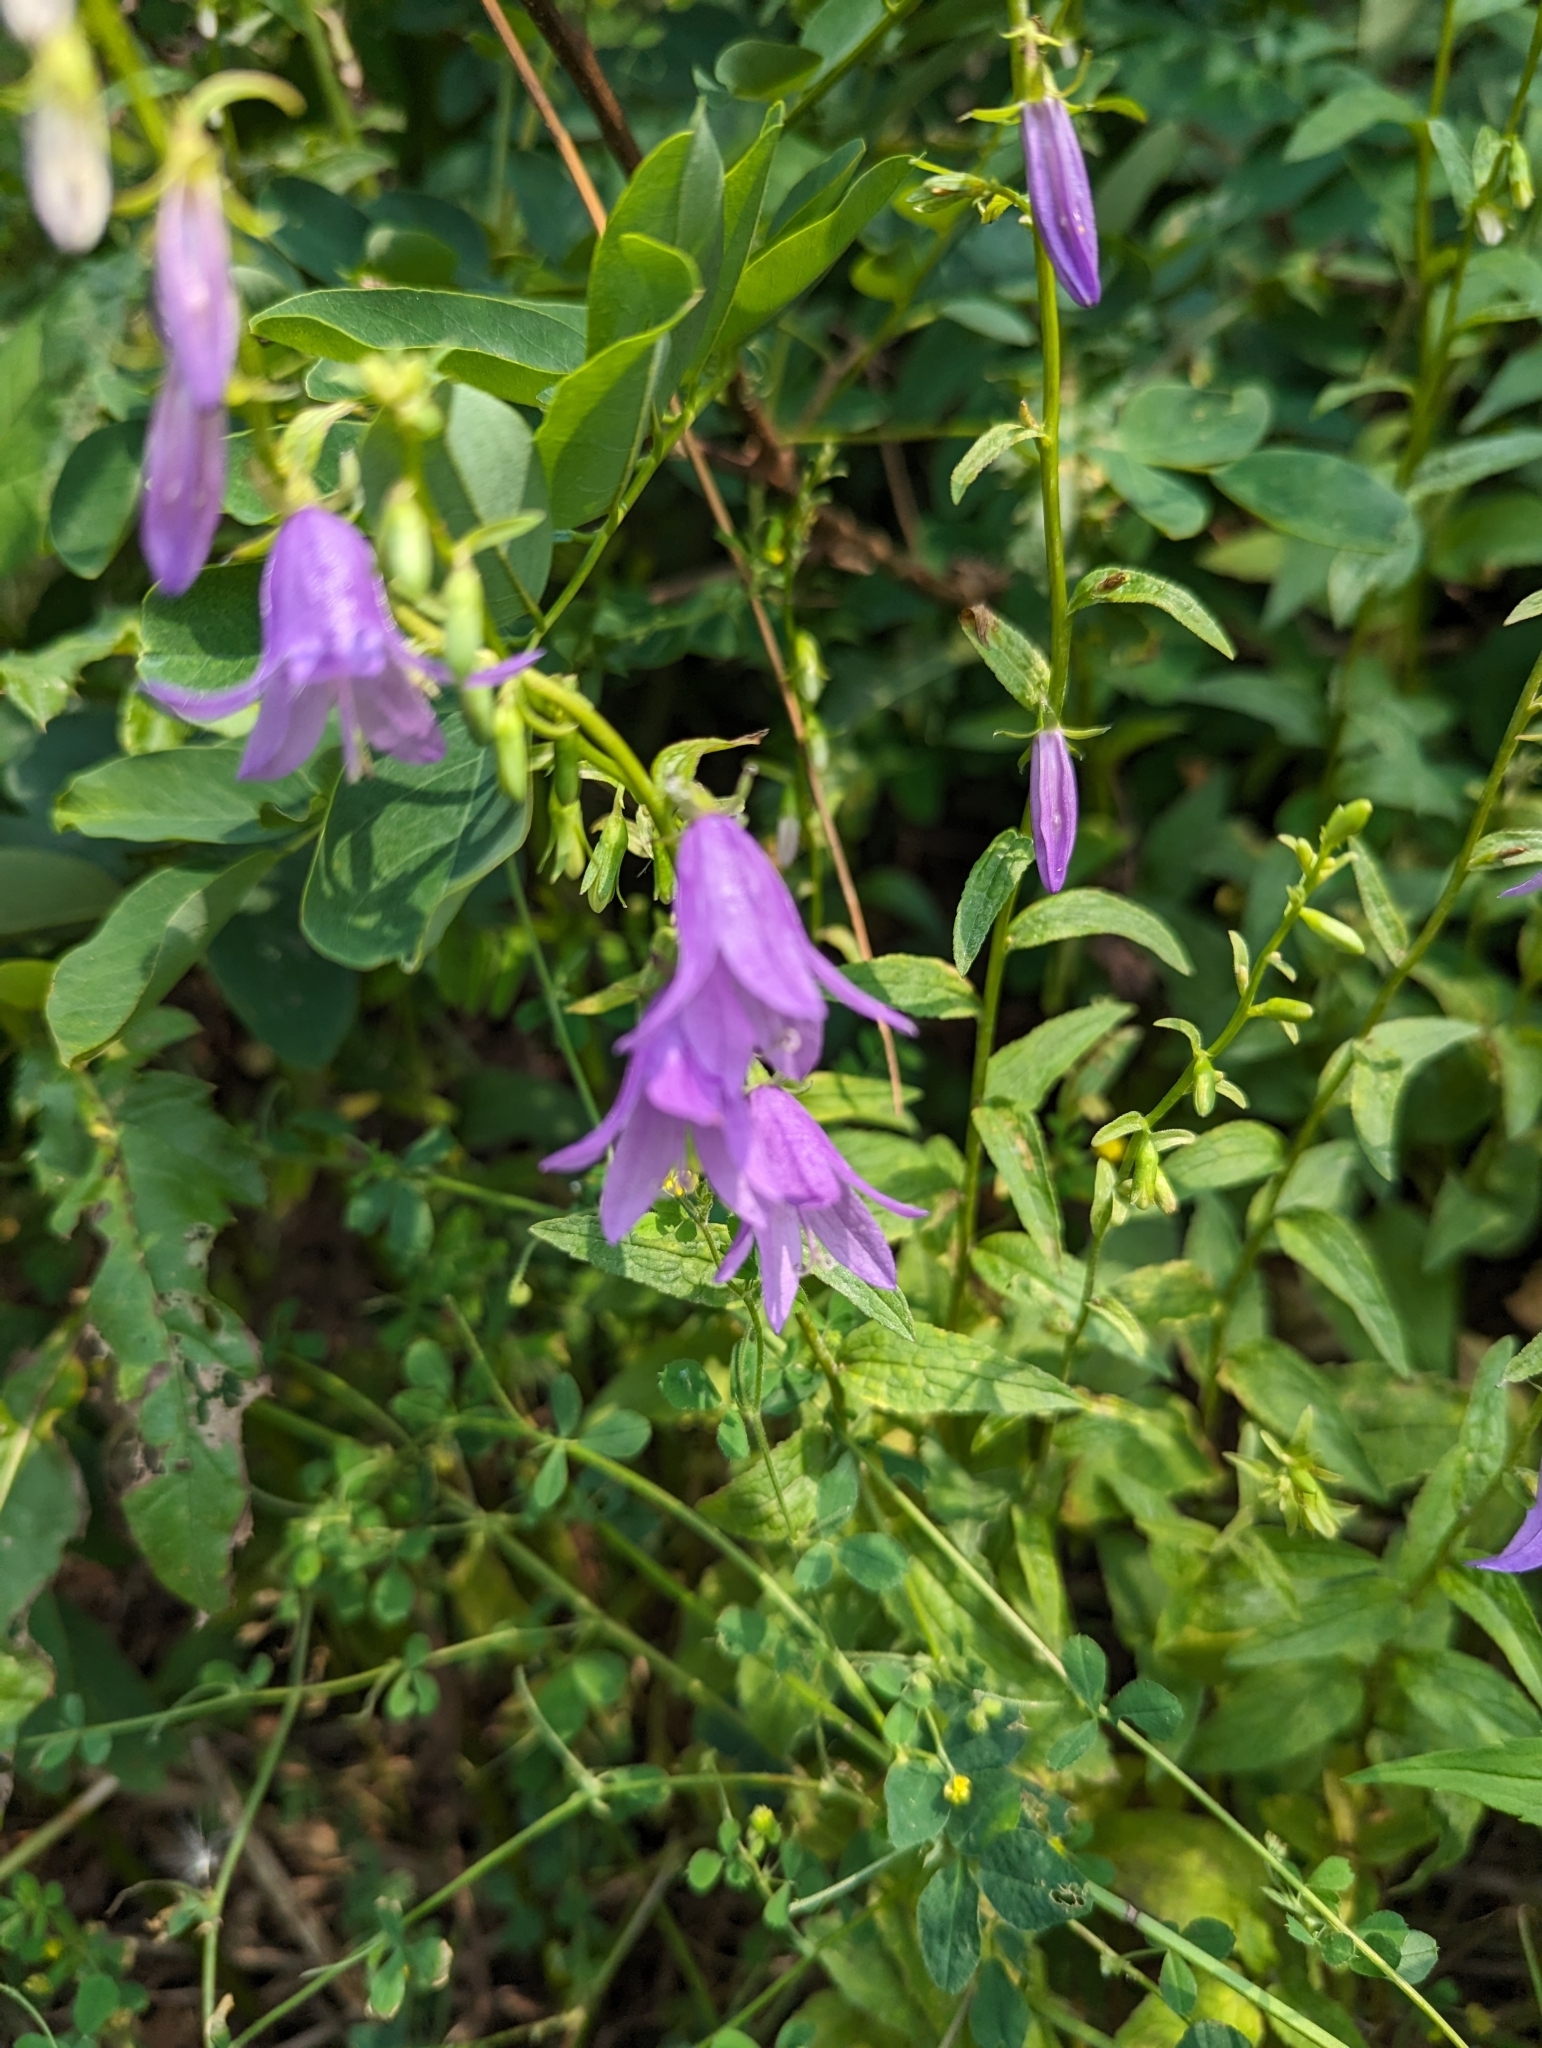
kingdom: Plantae
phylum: Tracheophyta
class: Magnoliopsida
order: Asterales
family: Campanulaceae
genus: Campanula
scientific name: Campanula rapunculoides
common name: Creeping bellflower
